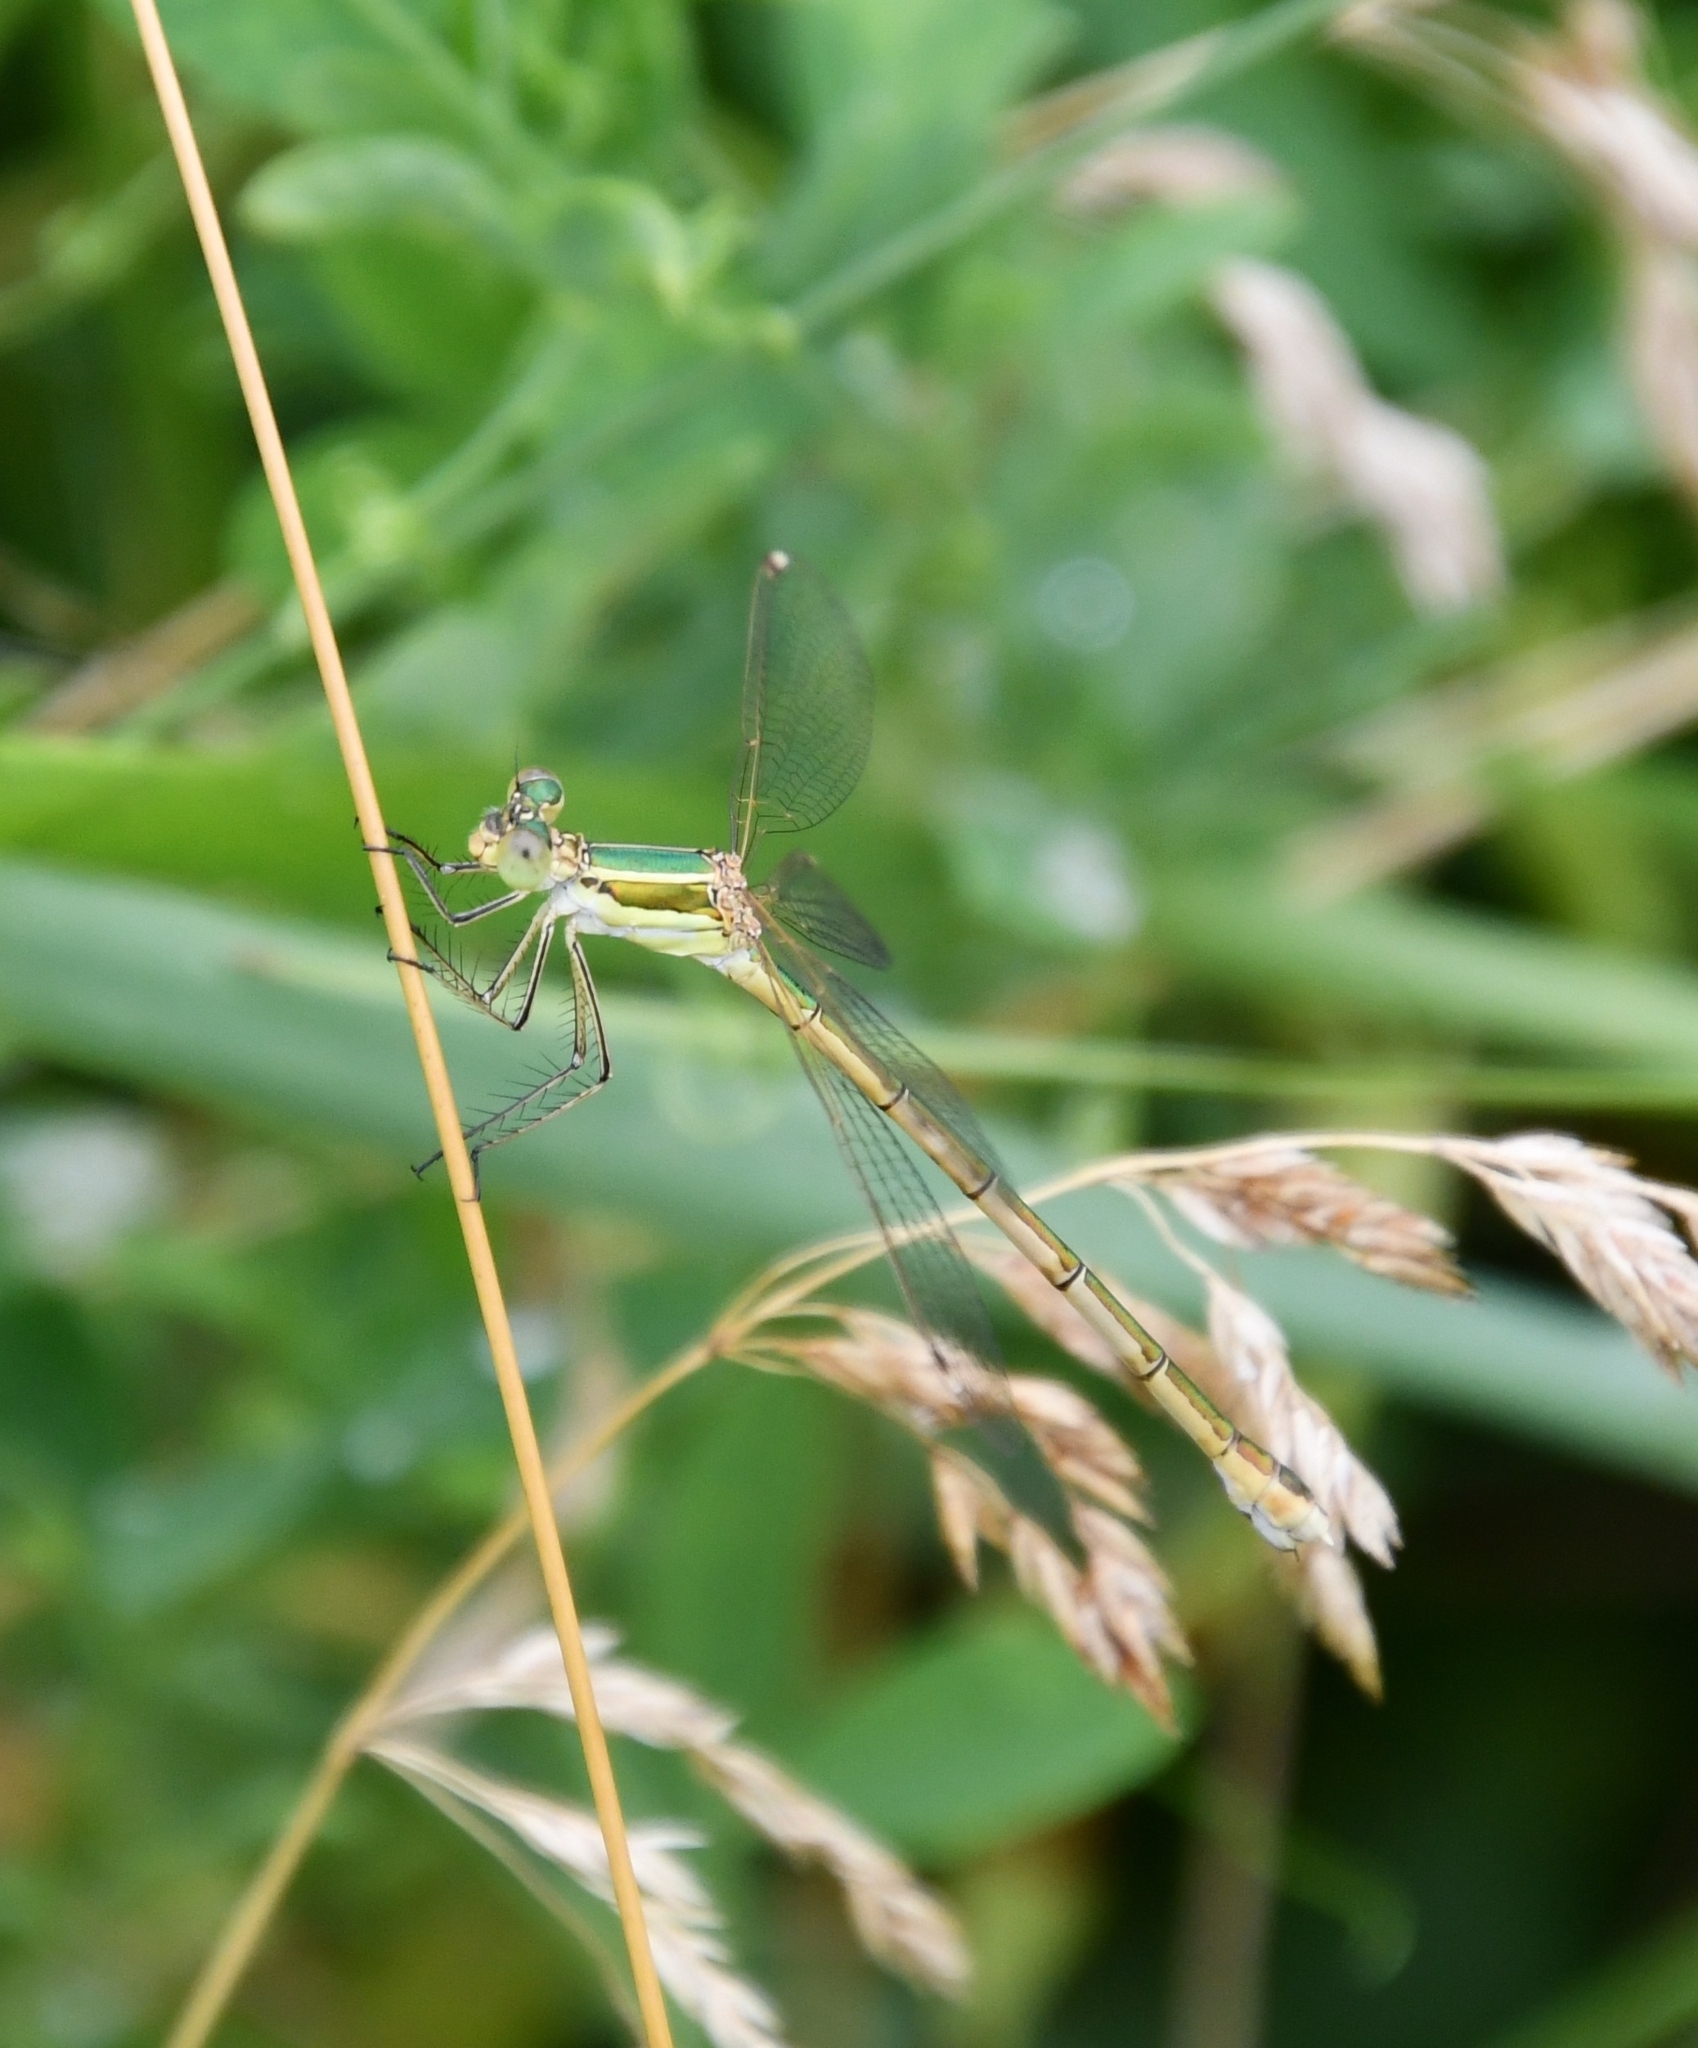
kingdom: Animalia
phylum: Arthropoda
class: Insecta
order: Odonata
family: Lestidae
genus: Lestes
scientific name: Lestes barbarus
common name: Migrant spreadwing
